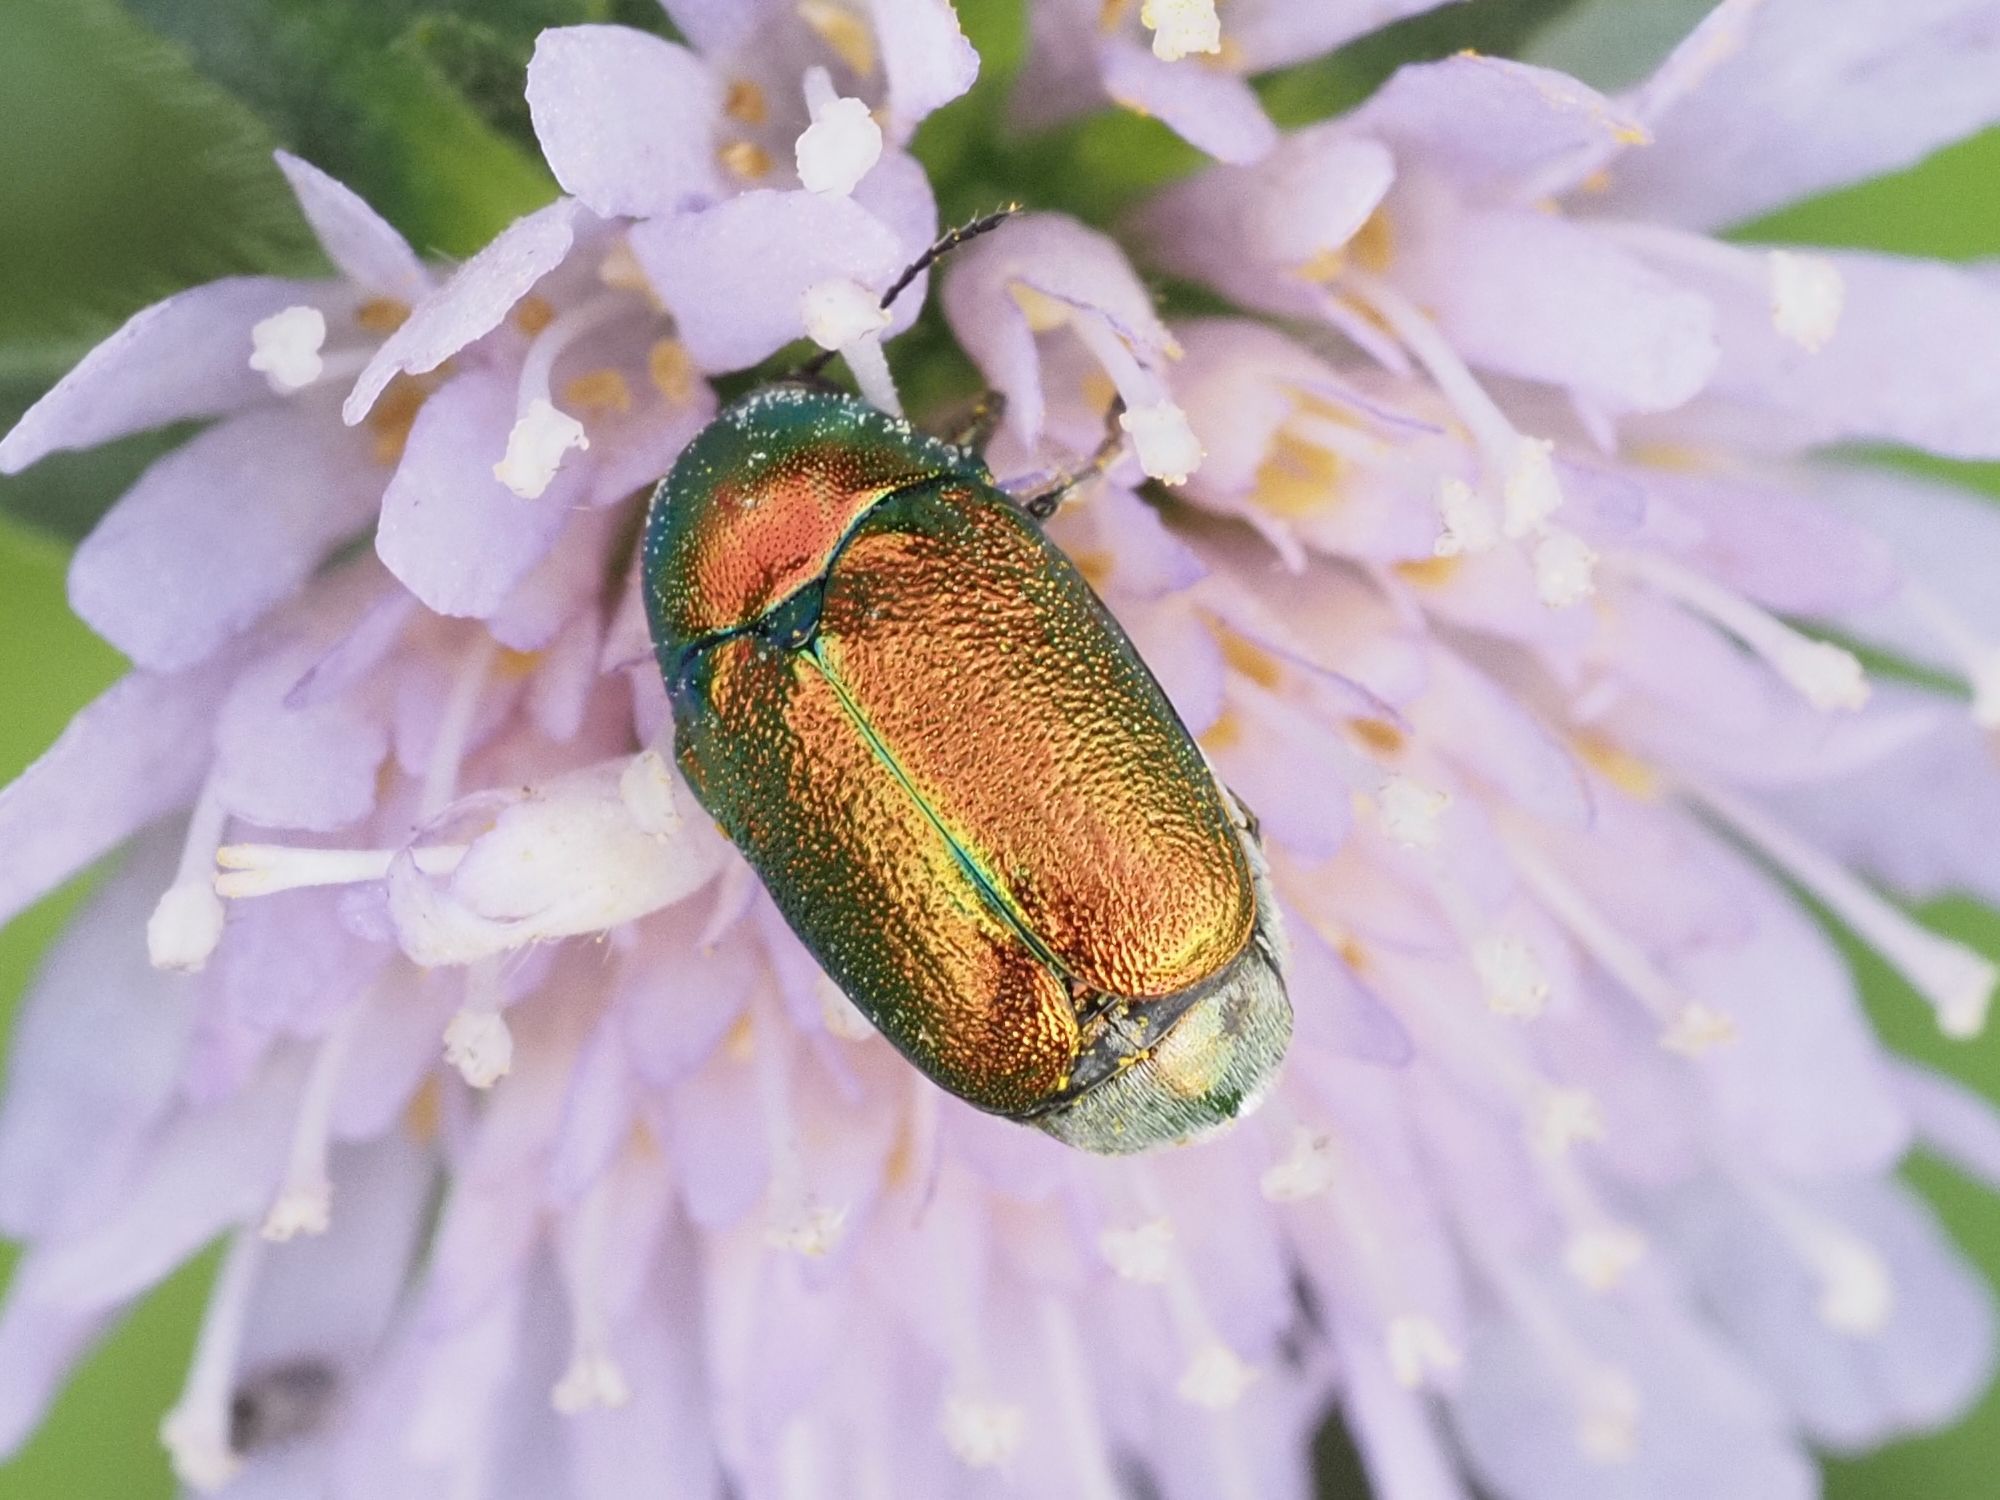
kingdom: Animalia
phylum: Arthropoda
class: Insecta
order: Coleoptera
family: Chrysomelidae
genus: Cryptocephalus
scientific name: Cryptocephalus
